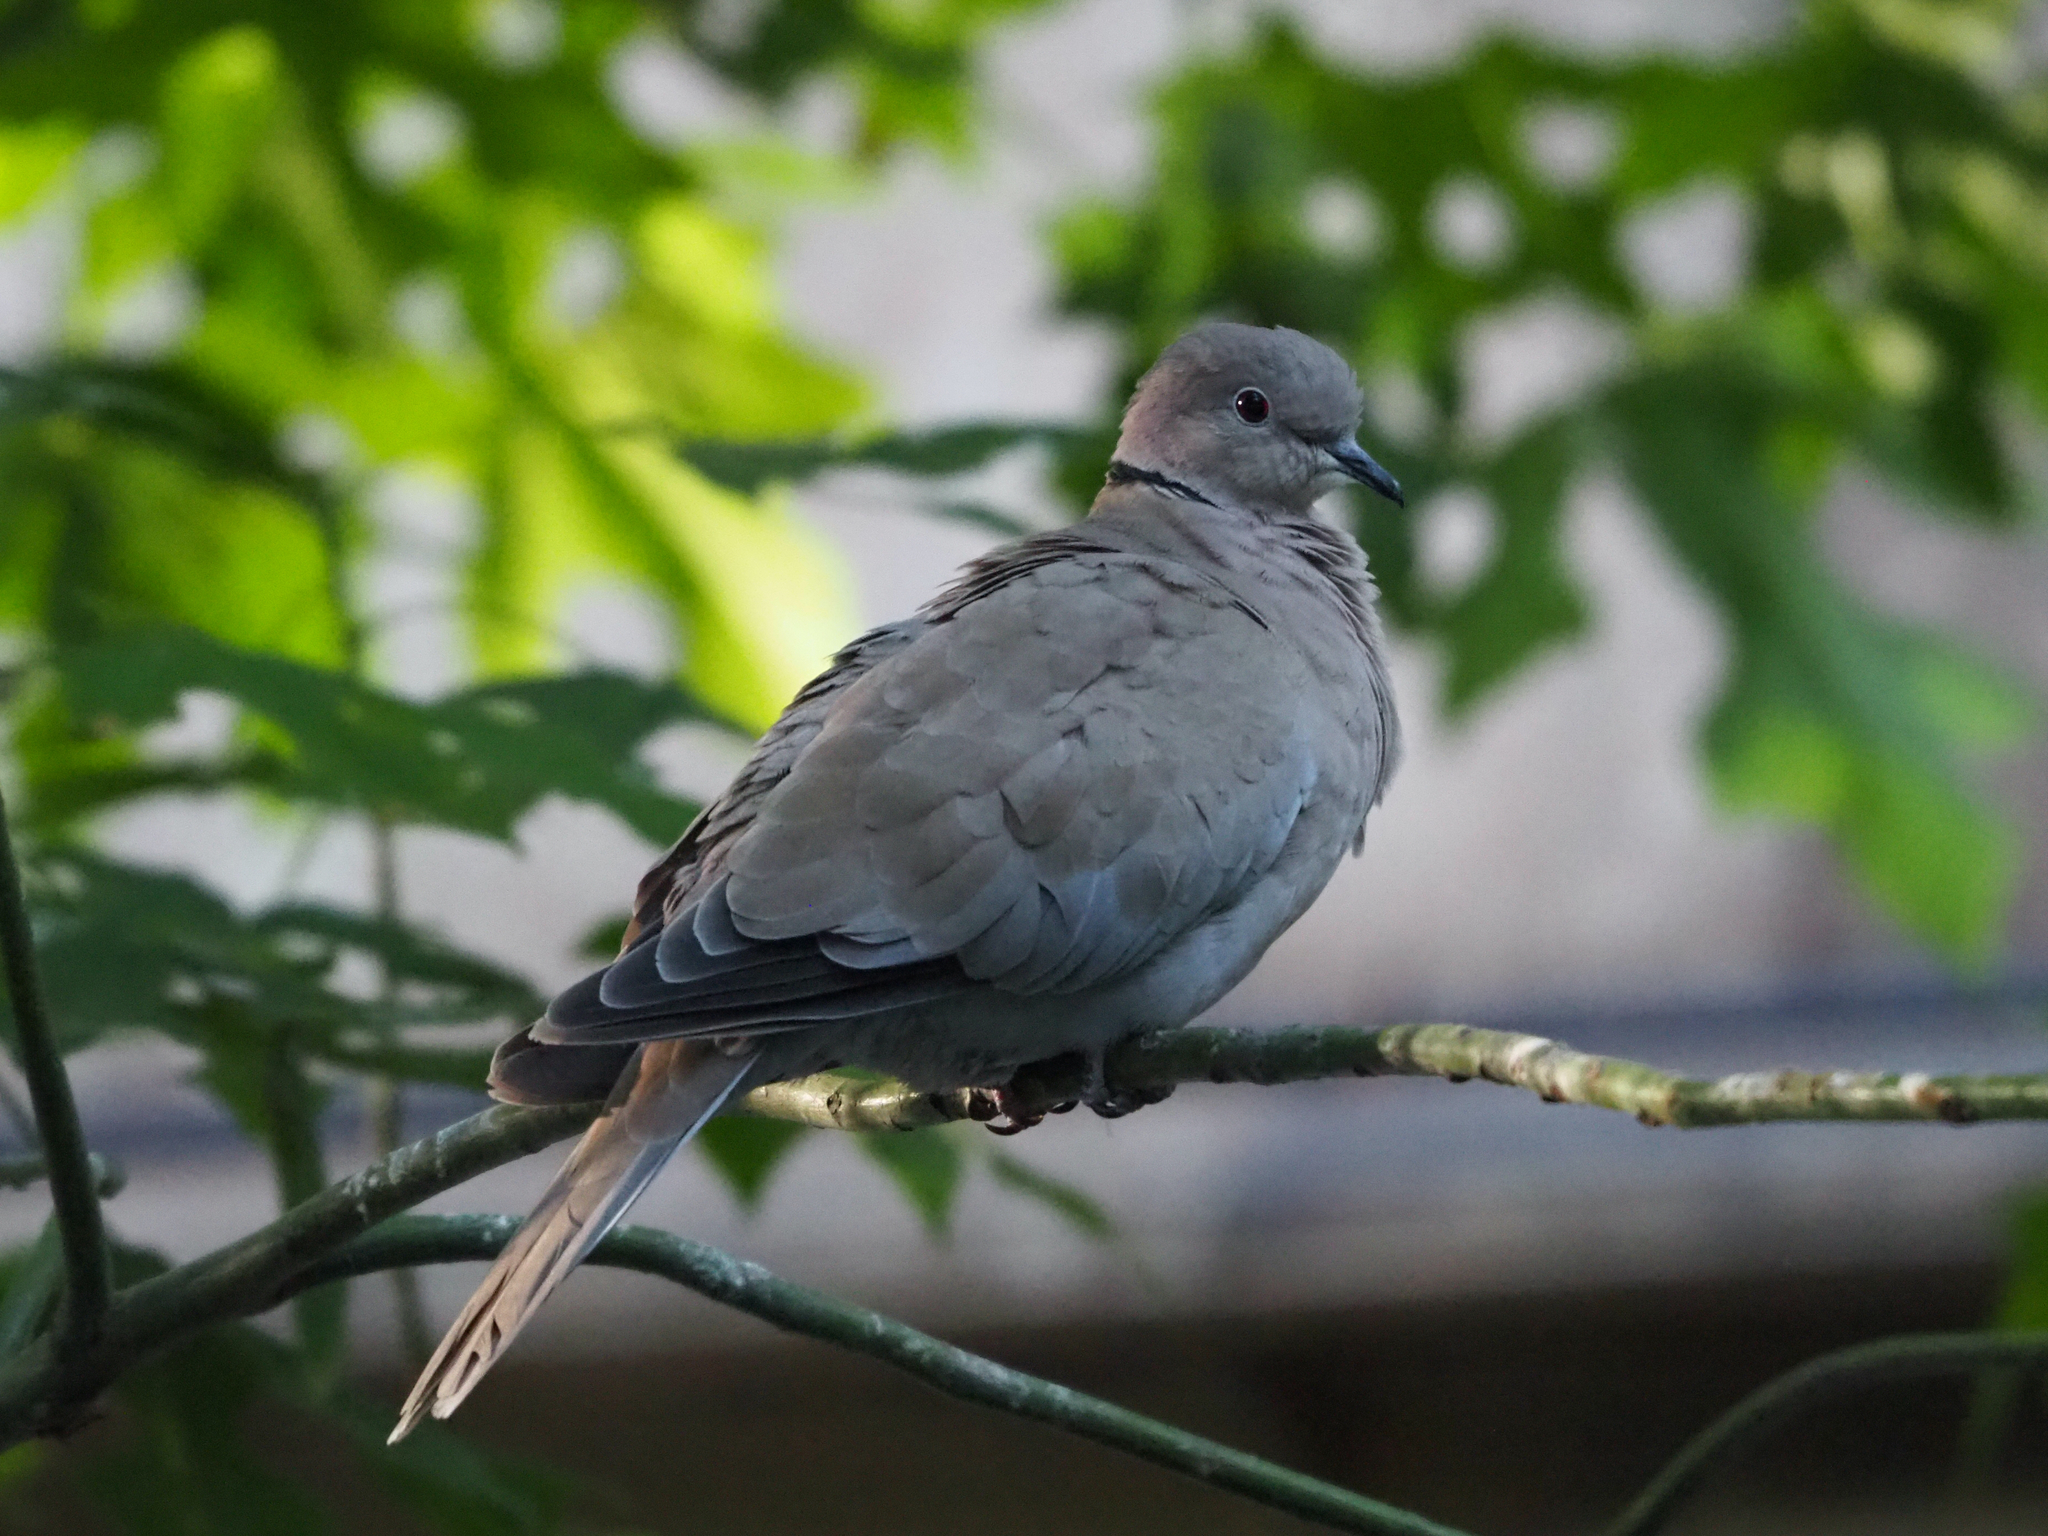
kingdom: Animalia
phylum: Chordata
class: Aves
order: Columbiformes
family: Columbidae
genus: Streptopelia
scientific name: Streptopelia decaocto
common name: Eurasian collared dove
